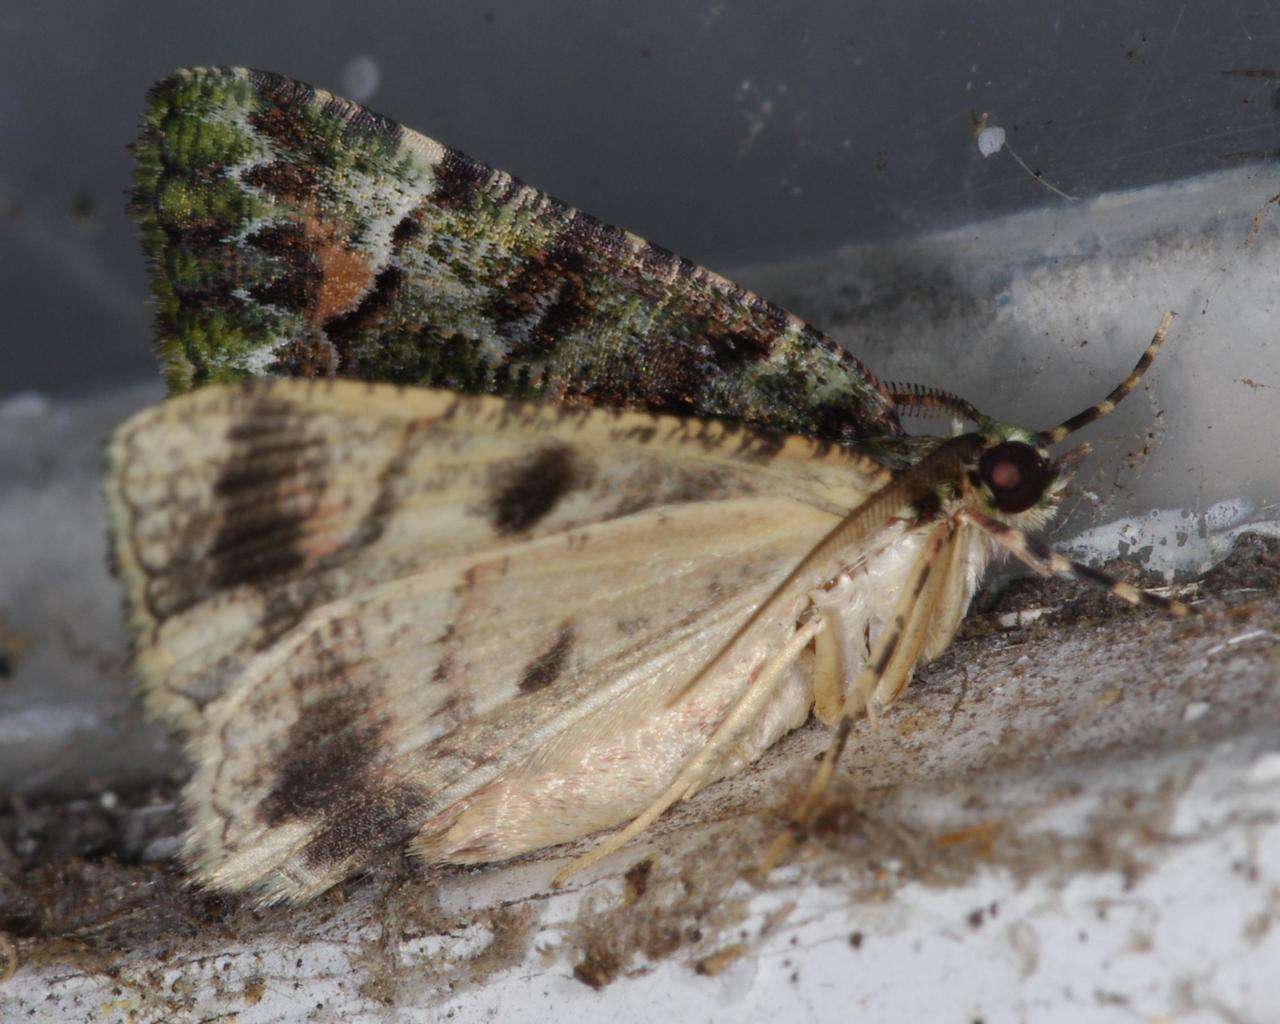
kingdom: Animalia
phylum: Arthropoda
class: Insecta
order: Lepidoptera
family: Geometridae
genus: Aeolochroma
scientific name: Aeolochroma metarhodata
